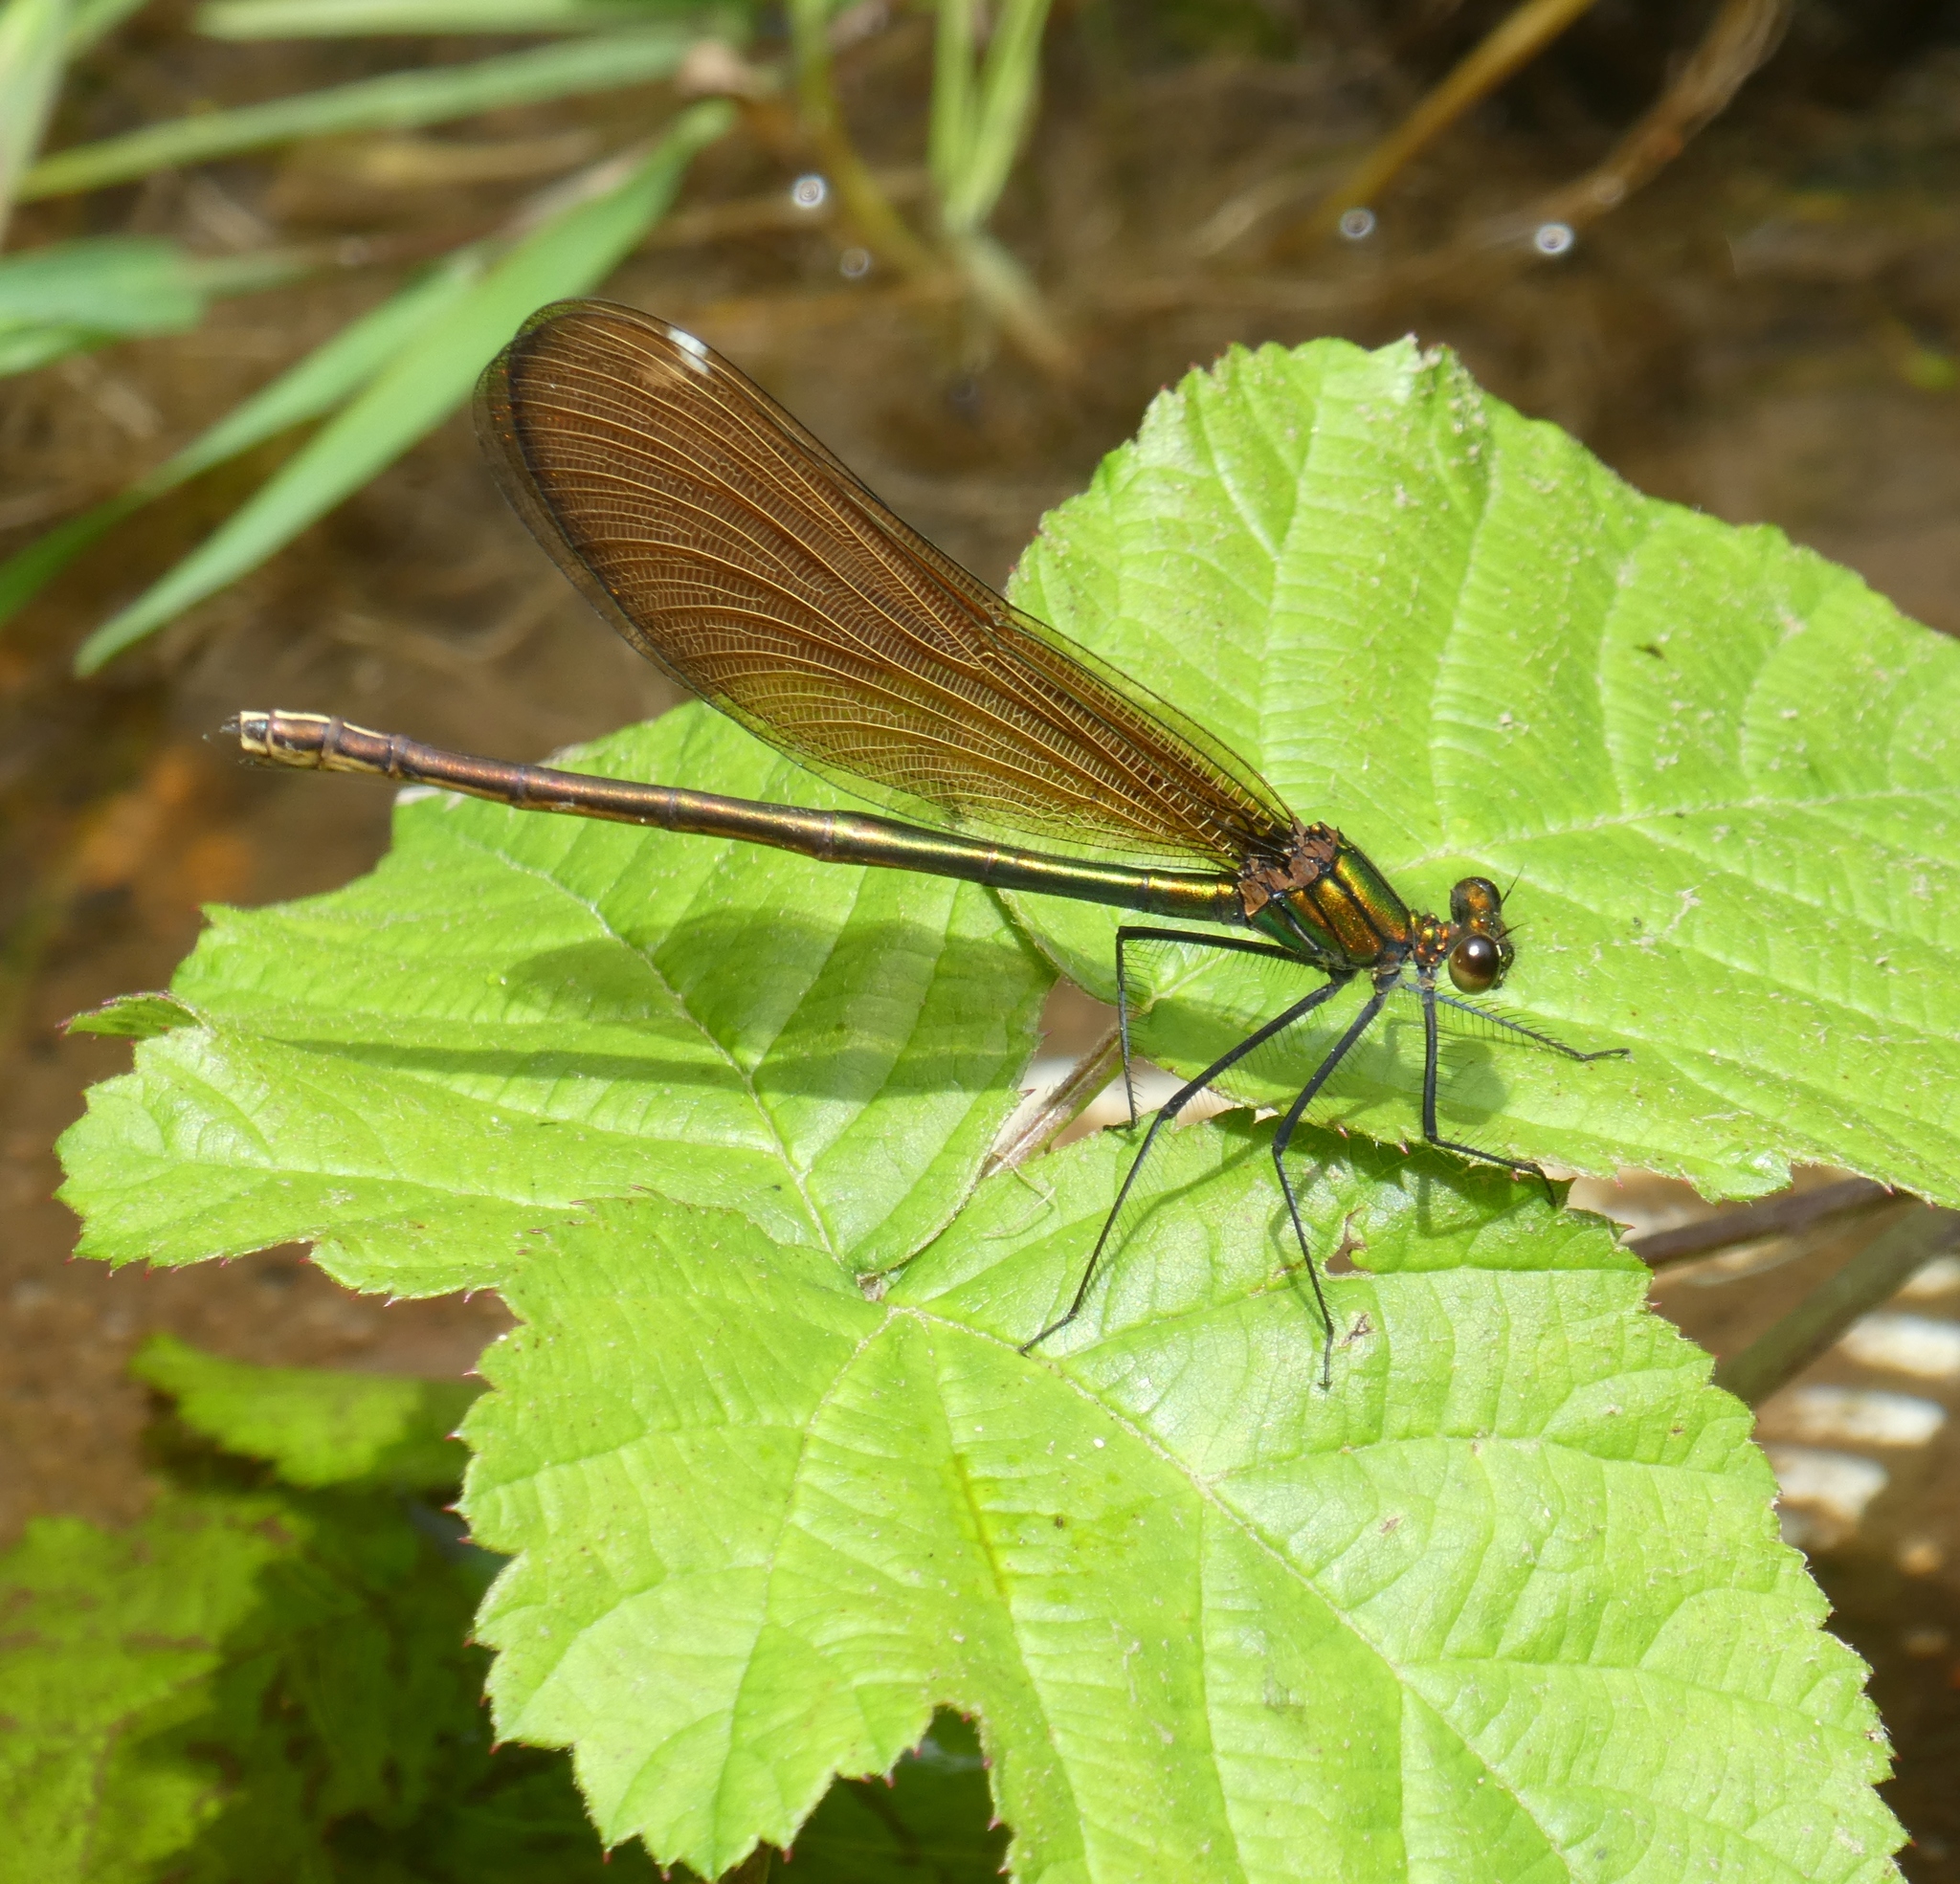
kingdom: Animalia
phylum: Arthropoda
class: Insecta
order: Odonata
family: Calopterygidae
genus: Calopteryx
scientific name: Calopteryx virgo
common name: Beautiful demoiselle
